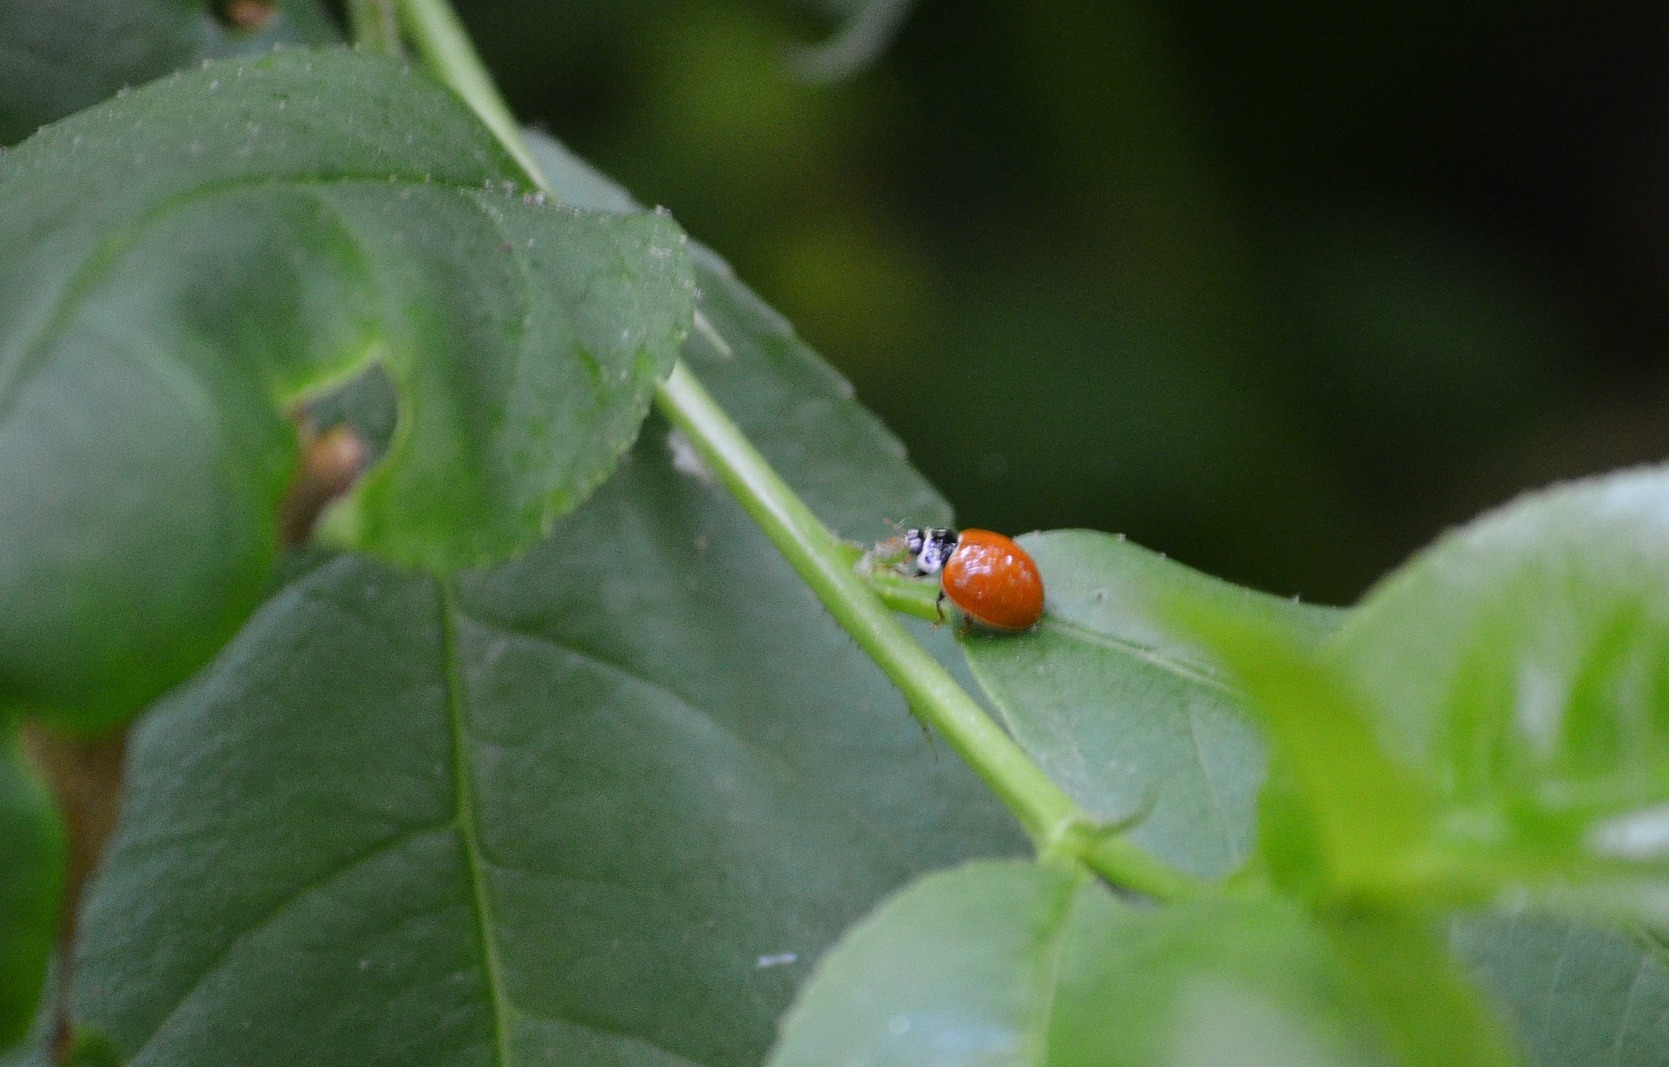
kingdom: Animalia
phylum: Arthropoda
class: Insecta
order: Coleoptera
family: Coccinellidae
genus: Harmonia
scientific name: Harmonia axyridis
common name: Harlequin ladybird
